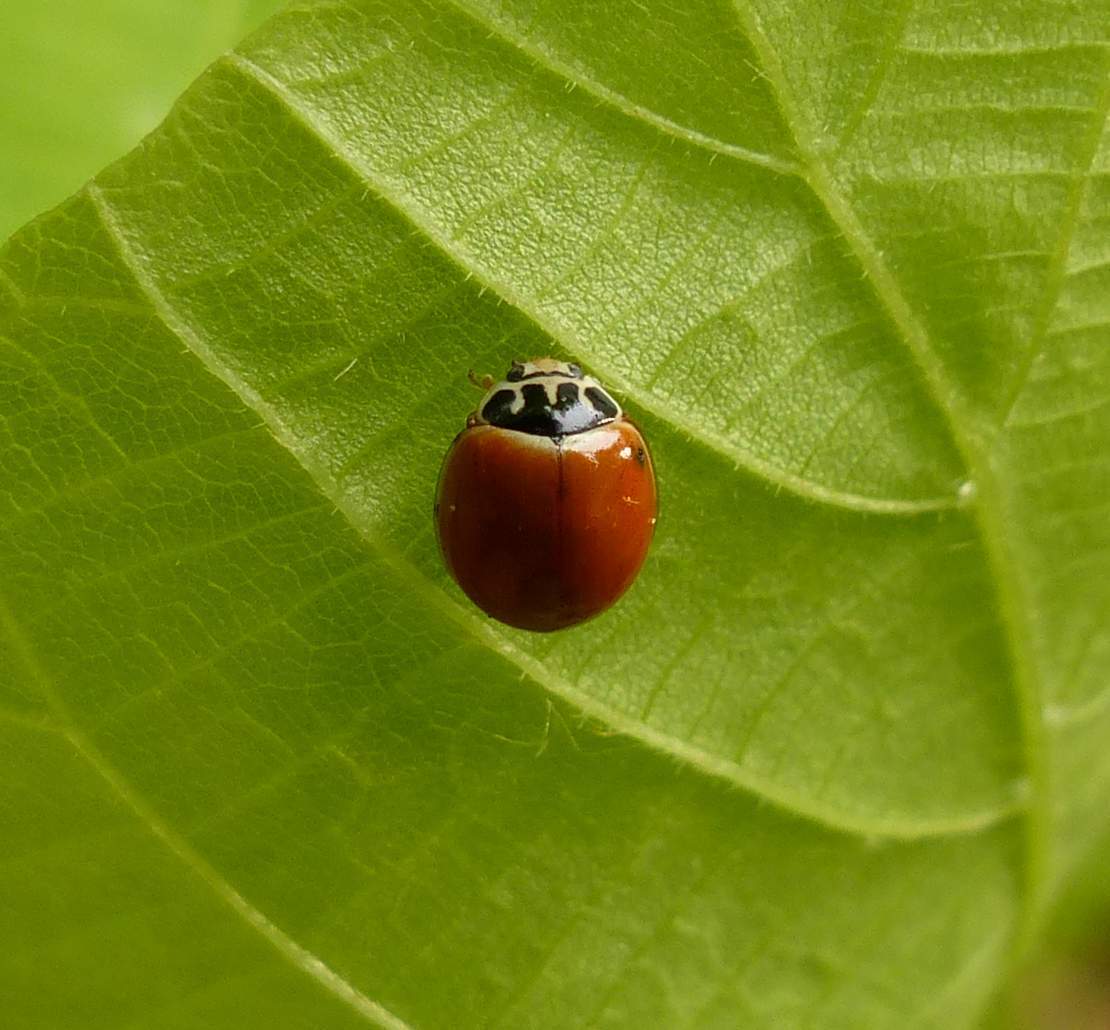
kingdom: Animalia
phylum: Arthropoda
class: Insecta
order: Coleoptera
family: Coccinellidae
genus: Cycloneda
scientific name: Cycloneda munda
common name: Polished lady beetle
